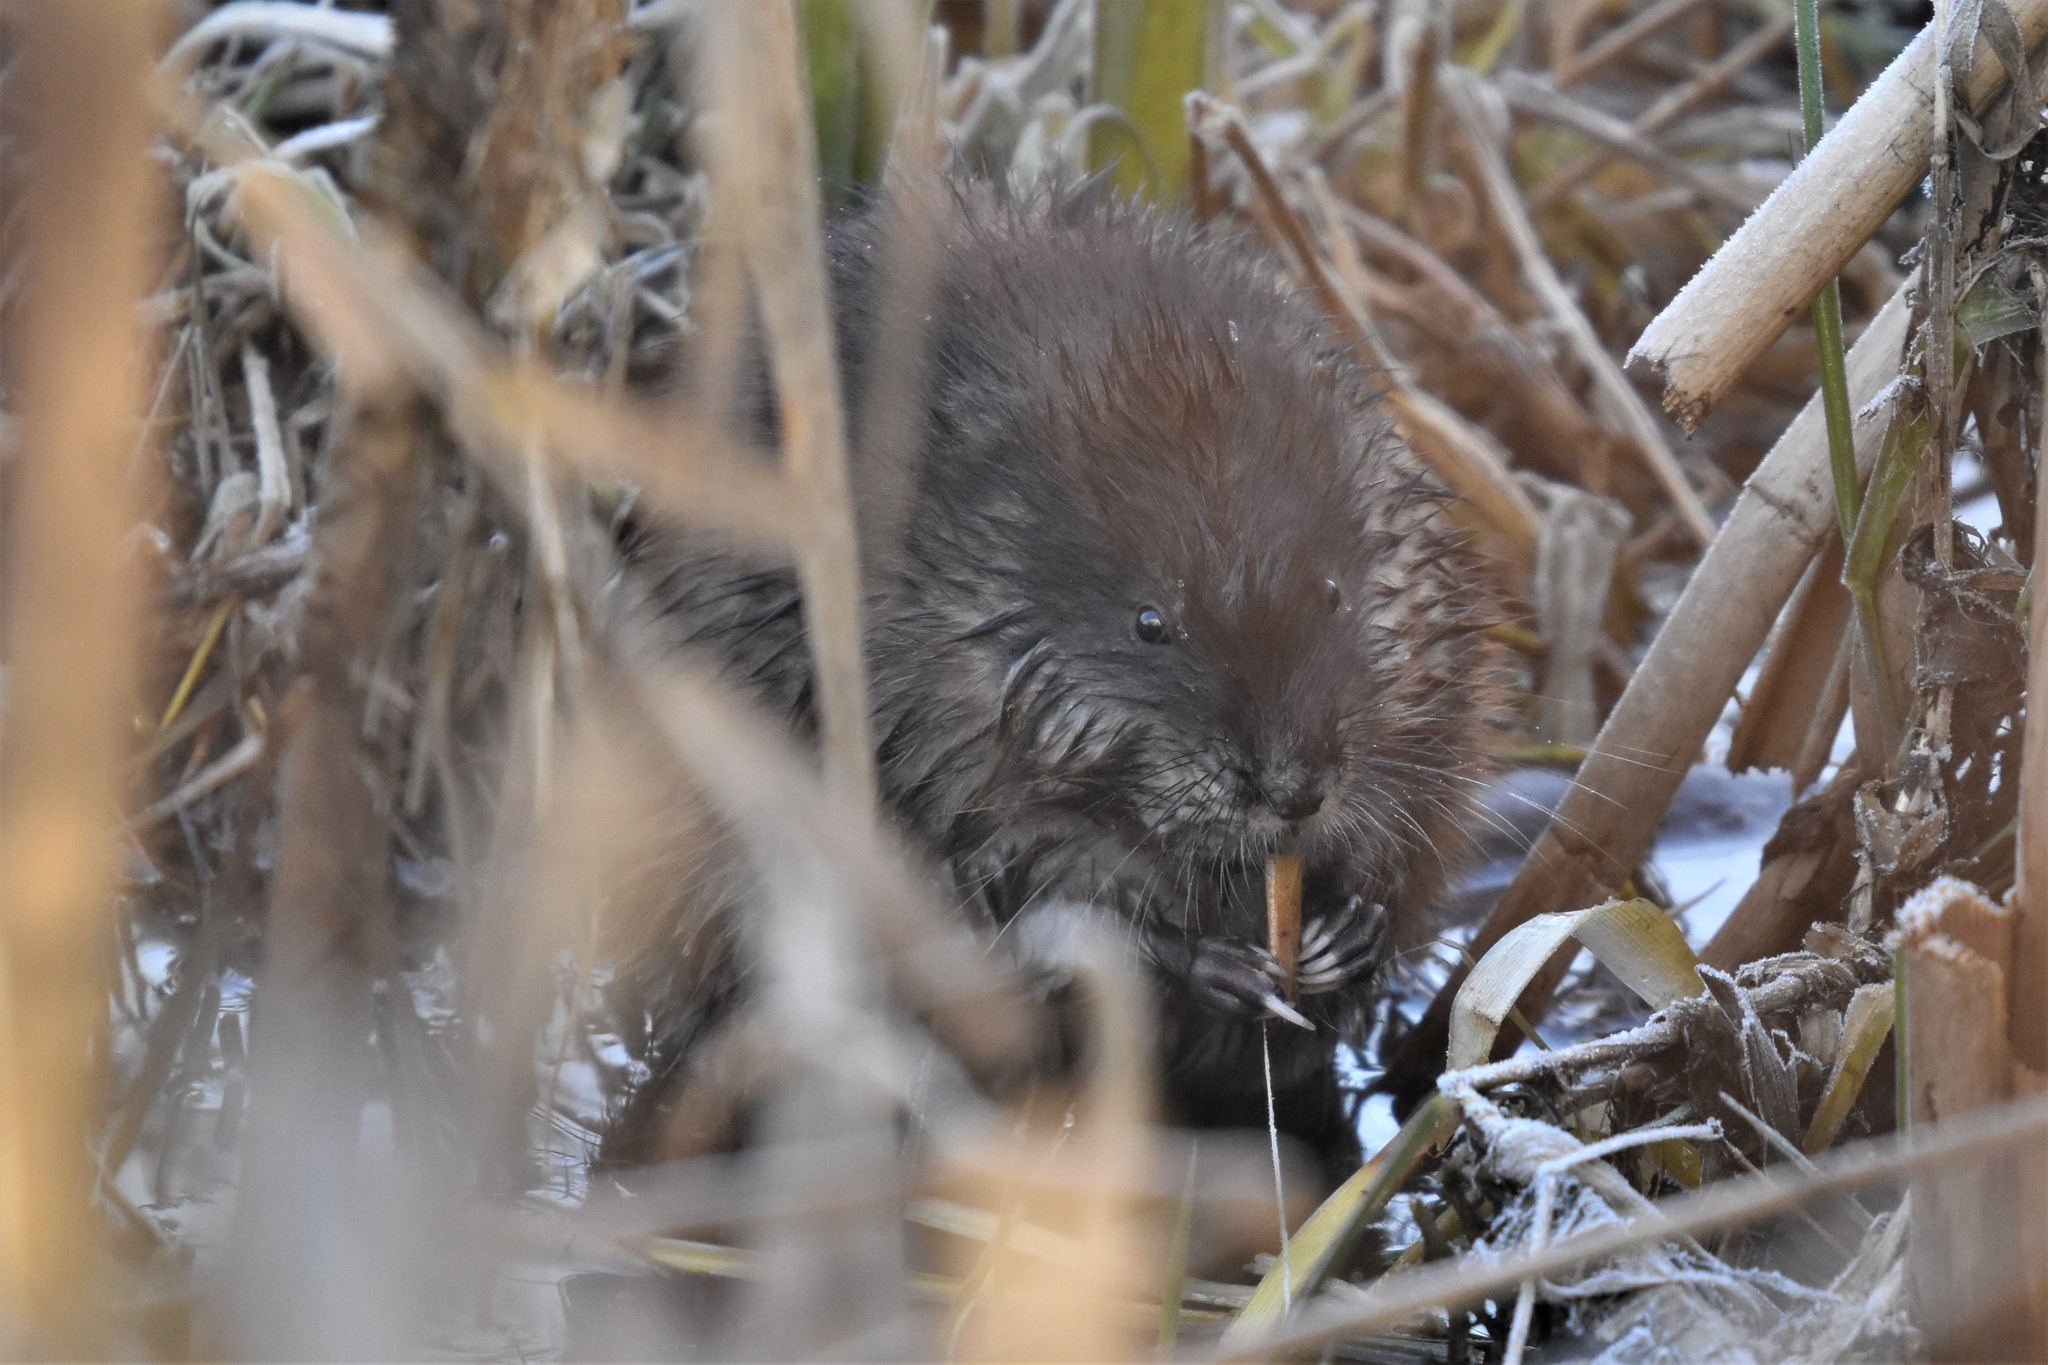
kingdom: Animalia
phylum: Chordata
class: Mammalia
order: Rodentia
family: Cricetidae
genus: Ondatra
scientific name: Ondatra zibethicus
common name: Muskrat
